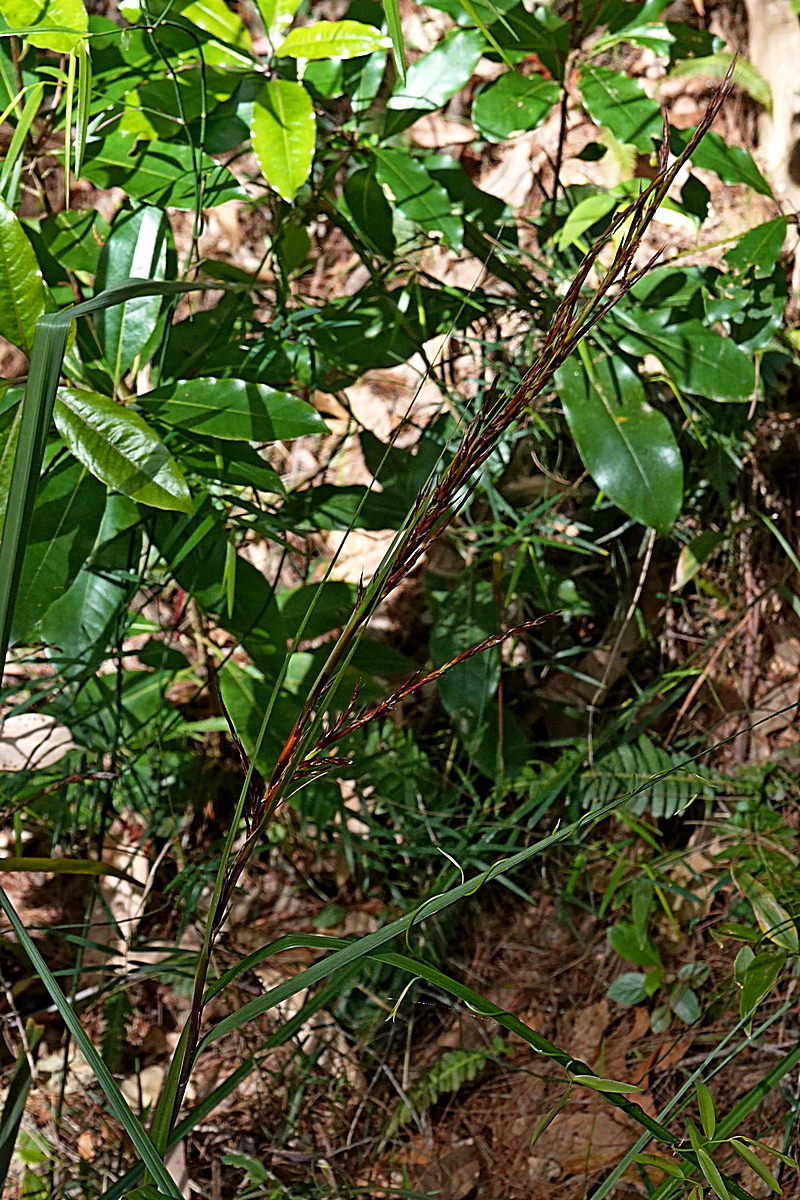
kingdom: Plantae
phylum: Tracheophyta
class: Liliopsida
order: Poales
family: Cyperaceae
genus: Gahnia
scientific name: Gahnia melanocarpa
